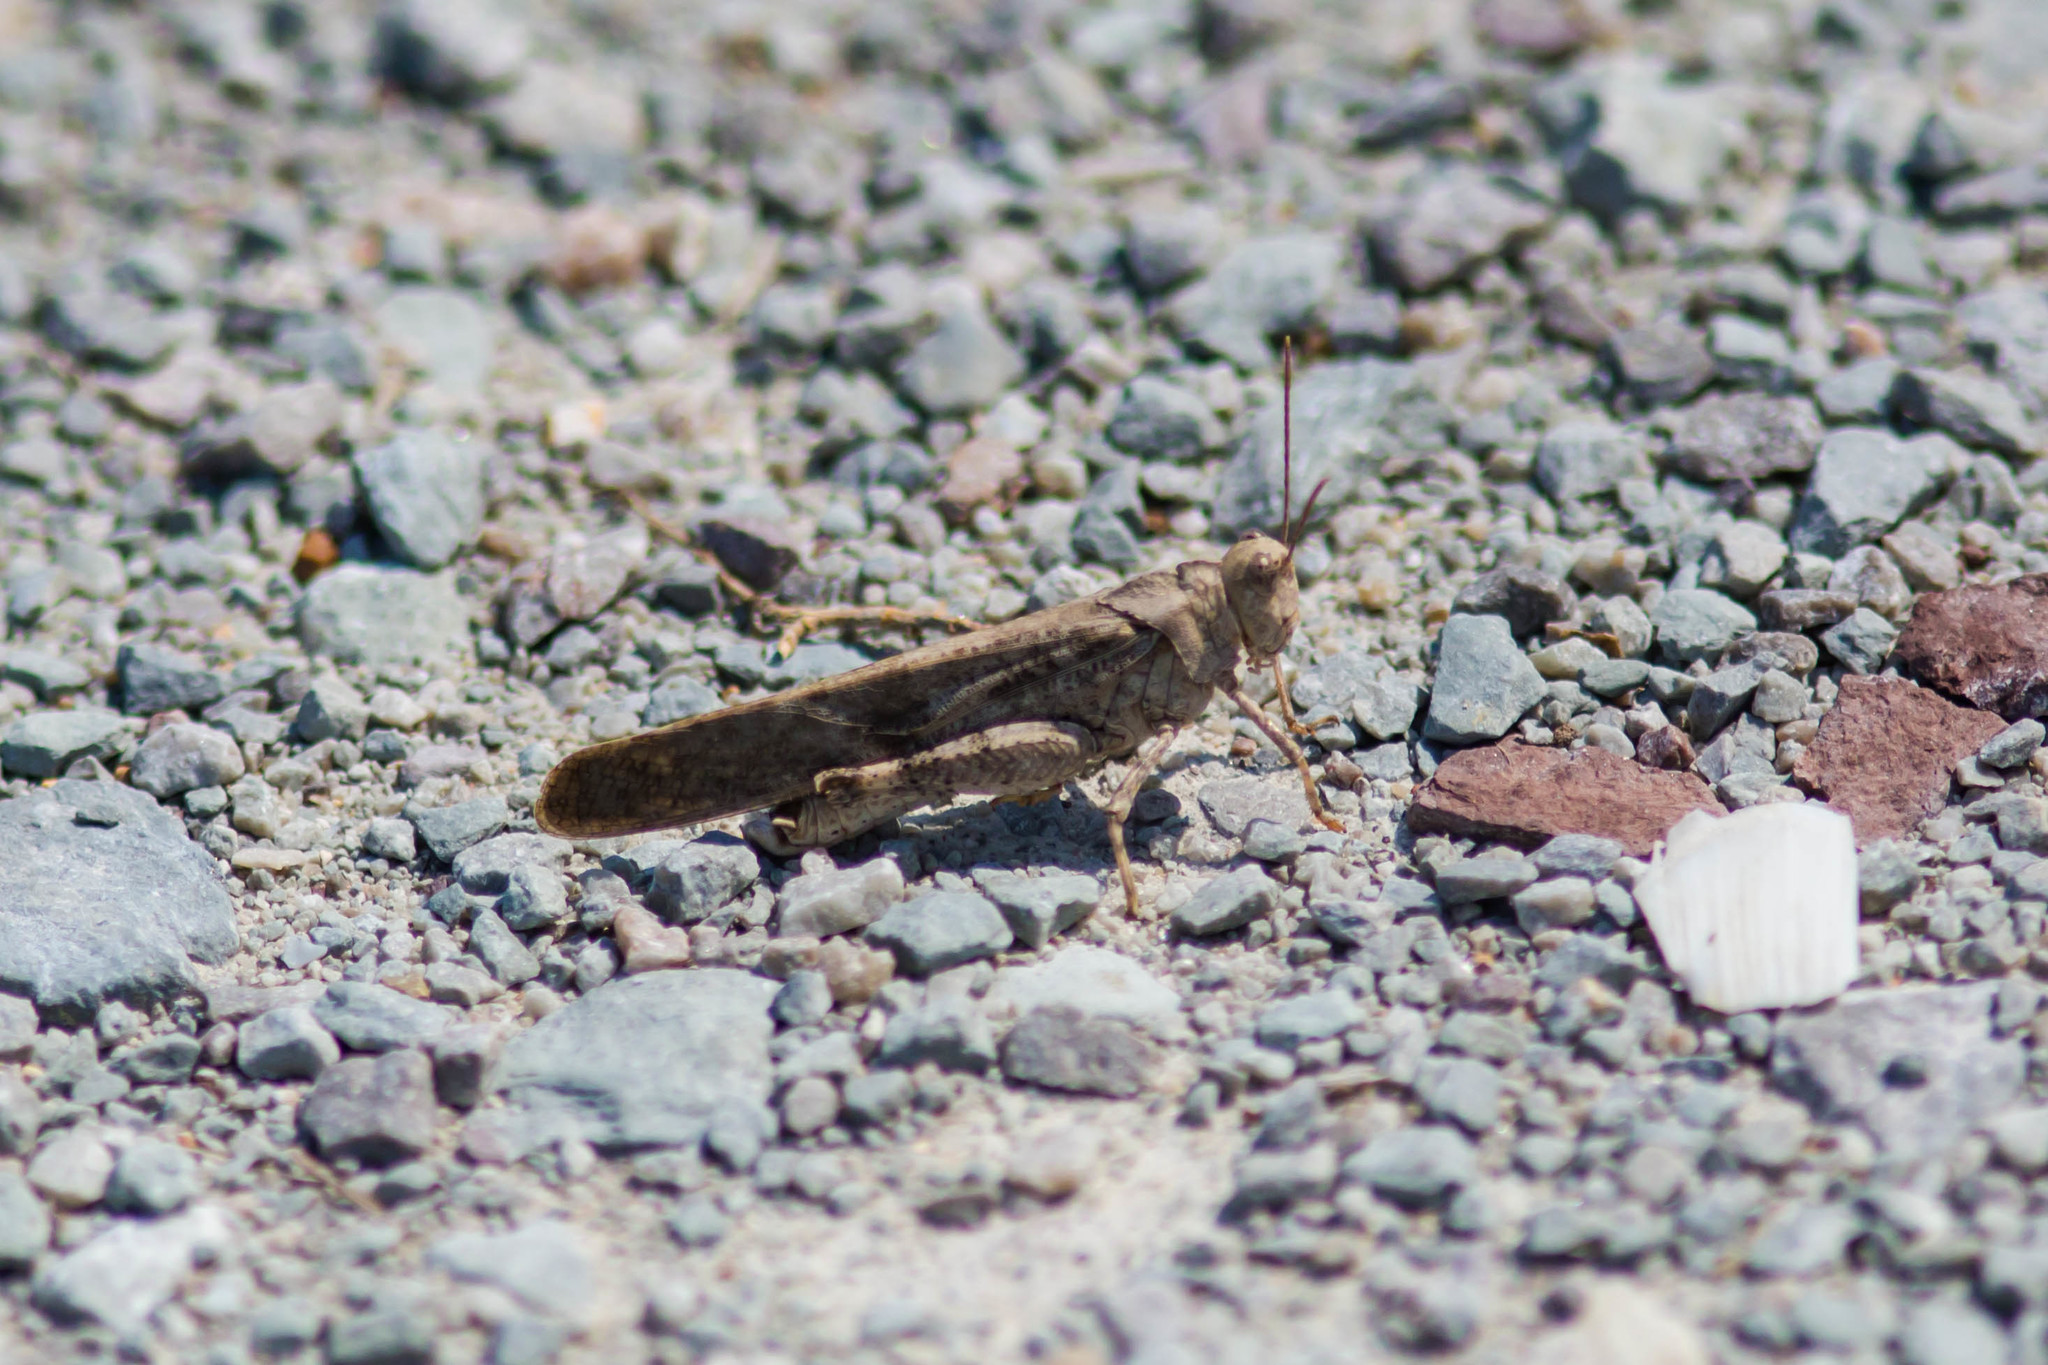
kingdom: Animalia
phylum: Arthropoda
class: Insecta
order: Orthoptera
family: Acrididae
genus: Dissosteira
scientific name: Dissosteira carolina
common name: Carolina grasshopper
